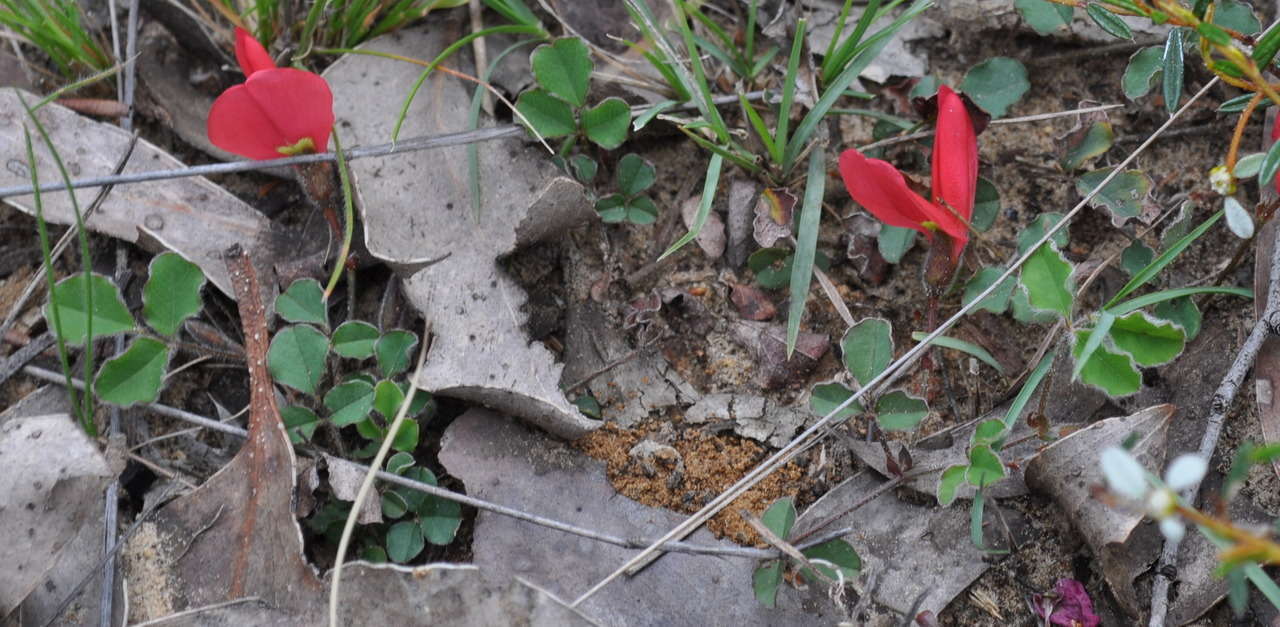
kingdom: Plantae
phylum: Tracheophyta
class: Magnoliopsida
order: Fabales
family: Fabaceae
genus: Kennedia
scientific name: Kennedia prostrata
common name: Running-postman
